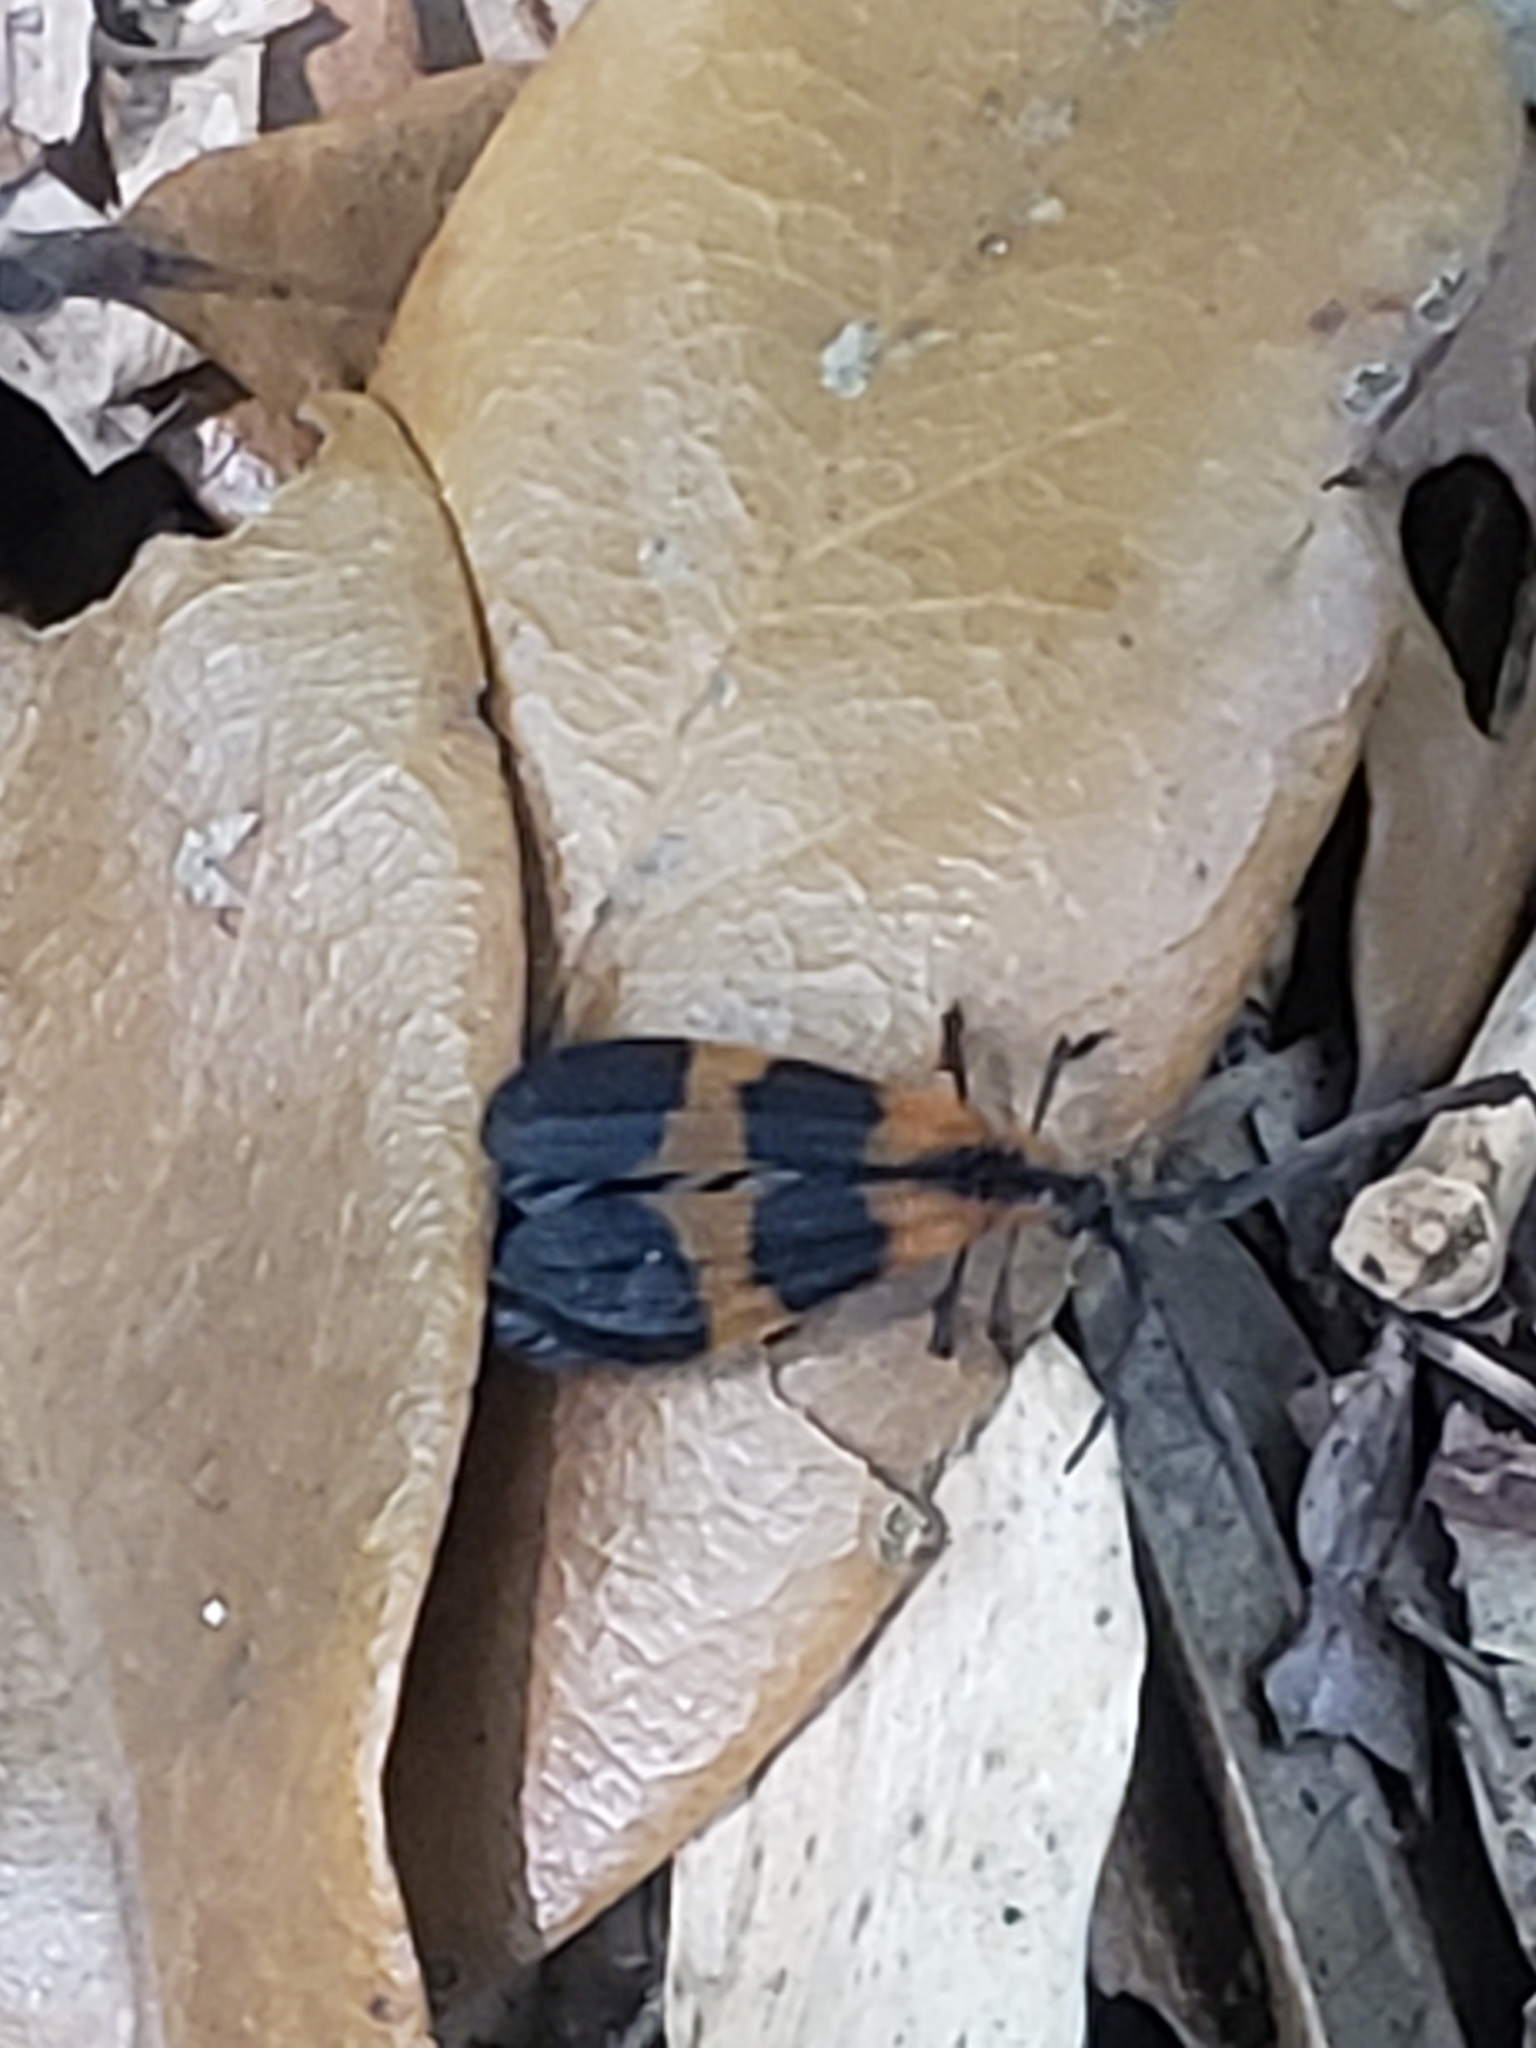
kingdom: Animalia
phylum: Arthropoda
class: Insecta
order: Coleoptera
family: Lycidae
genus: Calopteron
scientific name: Calopteron discrepans
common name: Banded net-winged beetle
